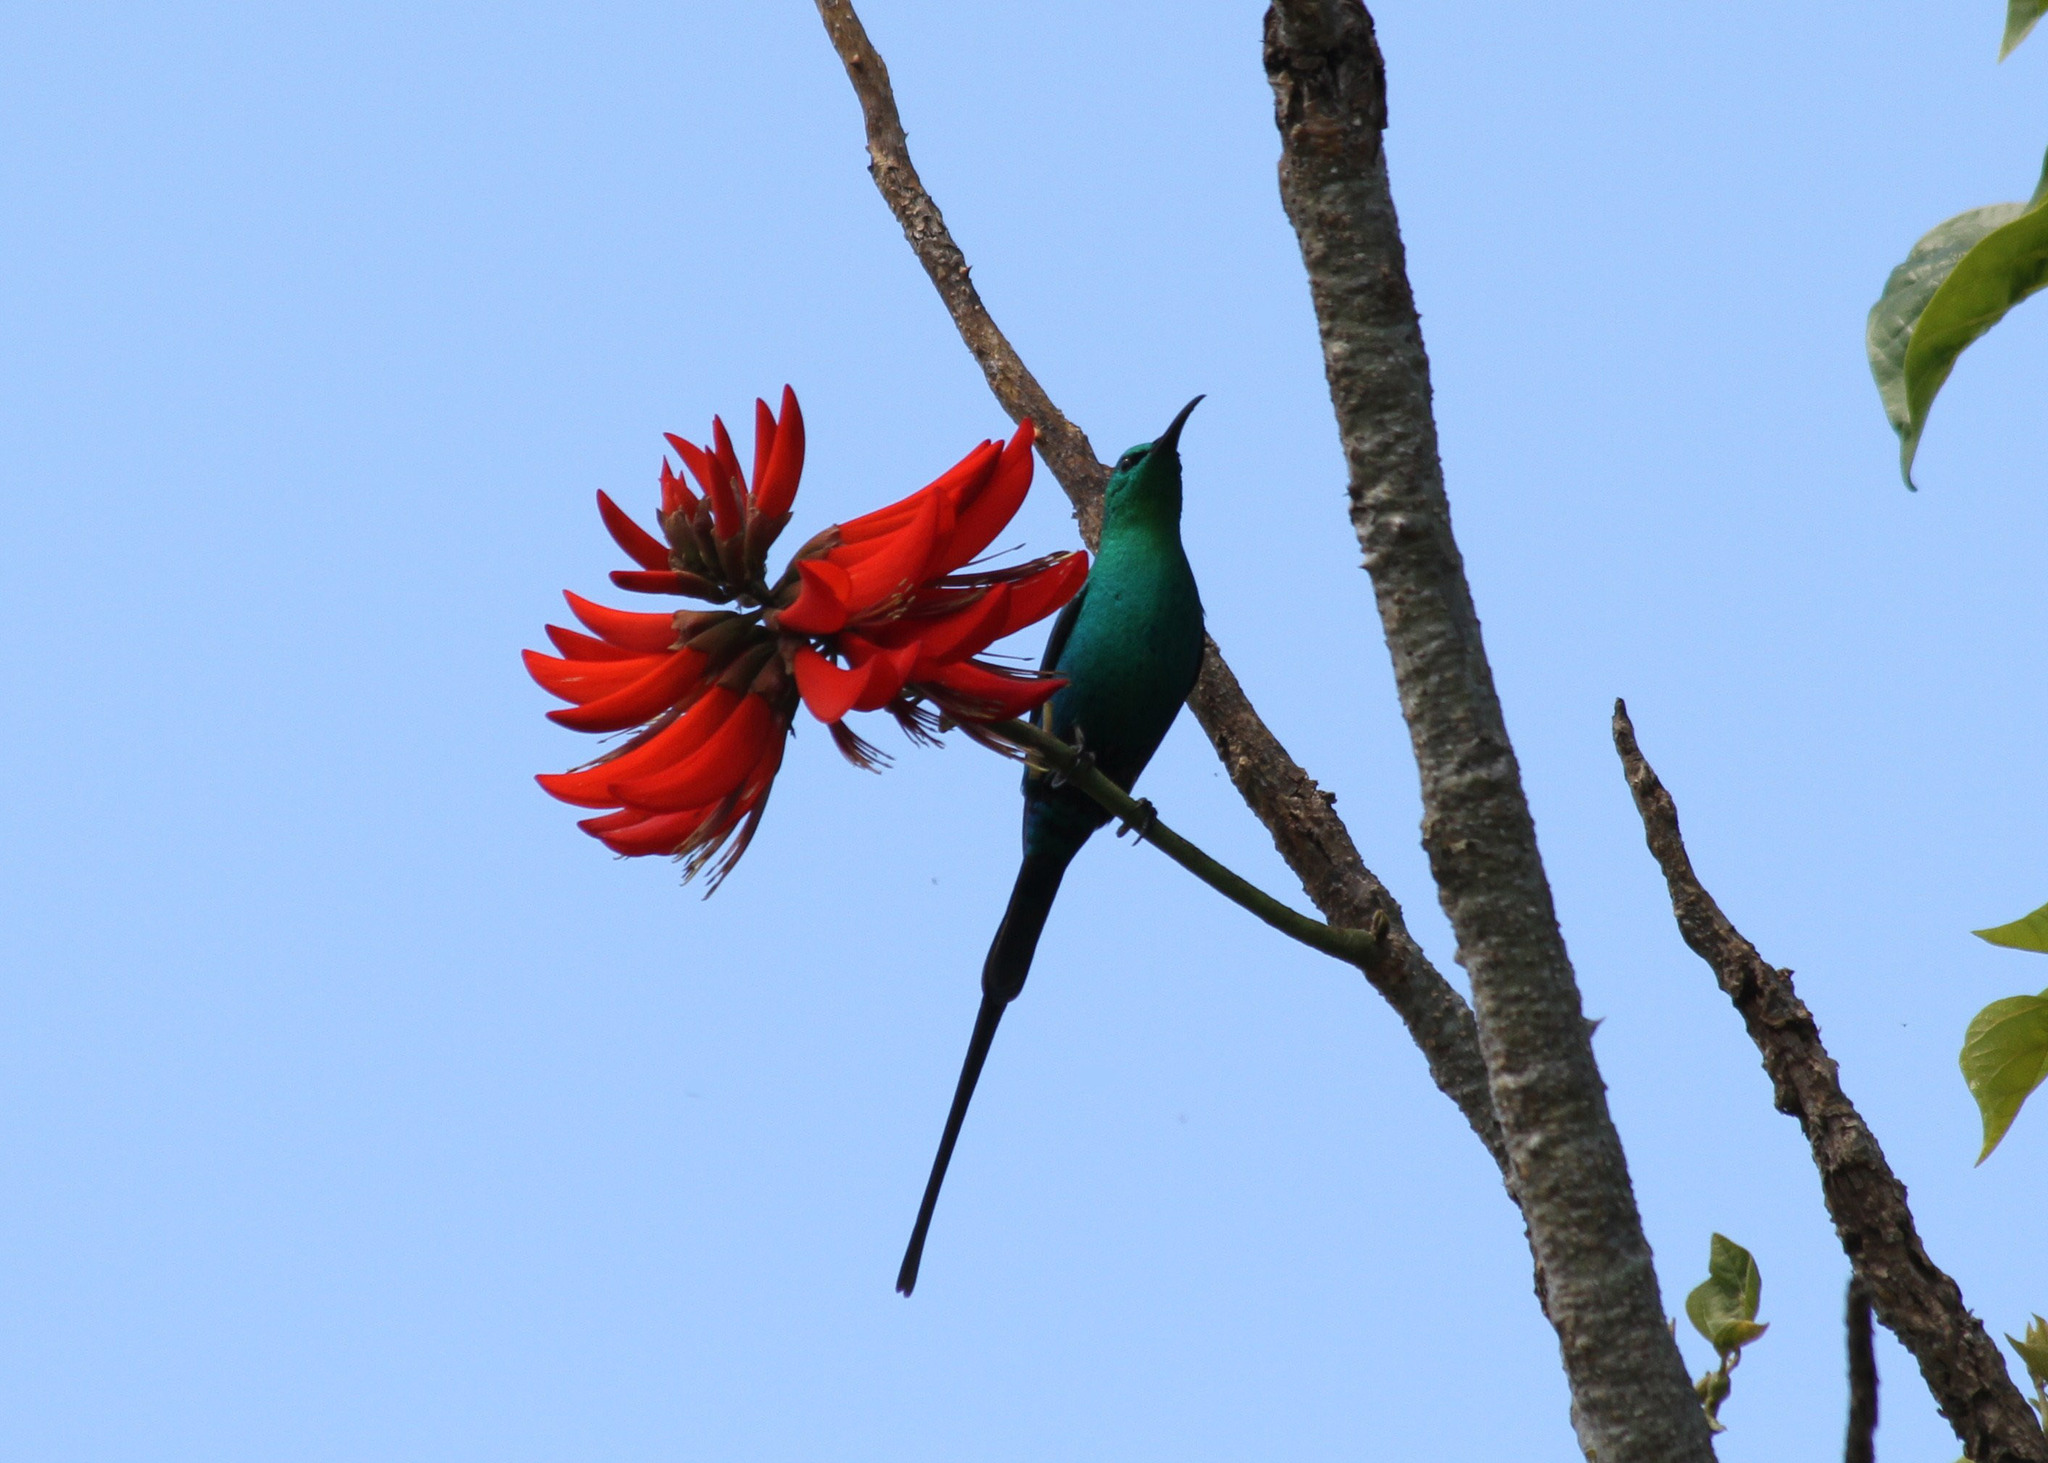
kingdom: Animalia
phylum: Chordata
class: Aves
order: Passeriformes
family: Nectariniidae
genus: Nectarinia
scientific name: Nectarinia famosa
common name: Malachite sunbird
